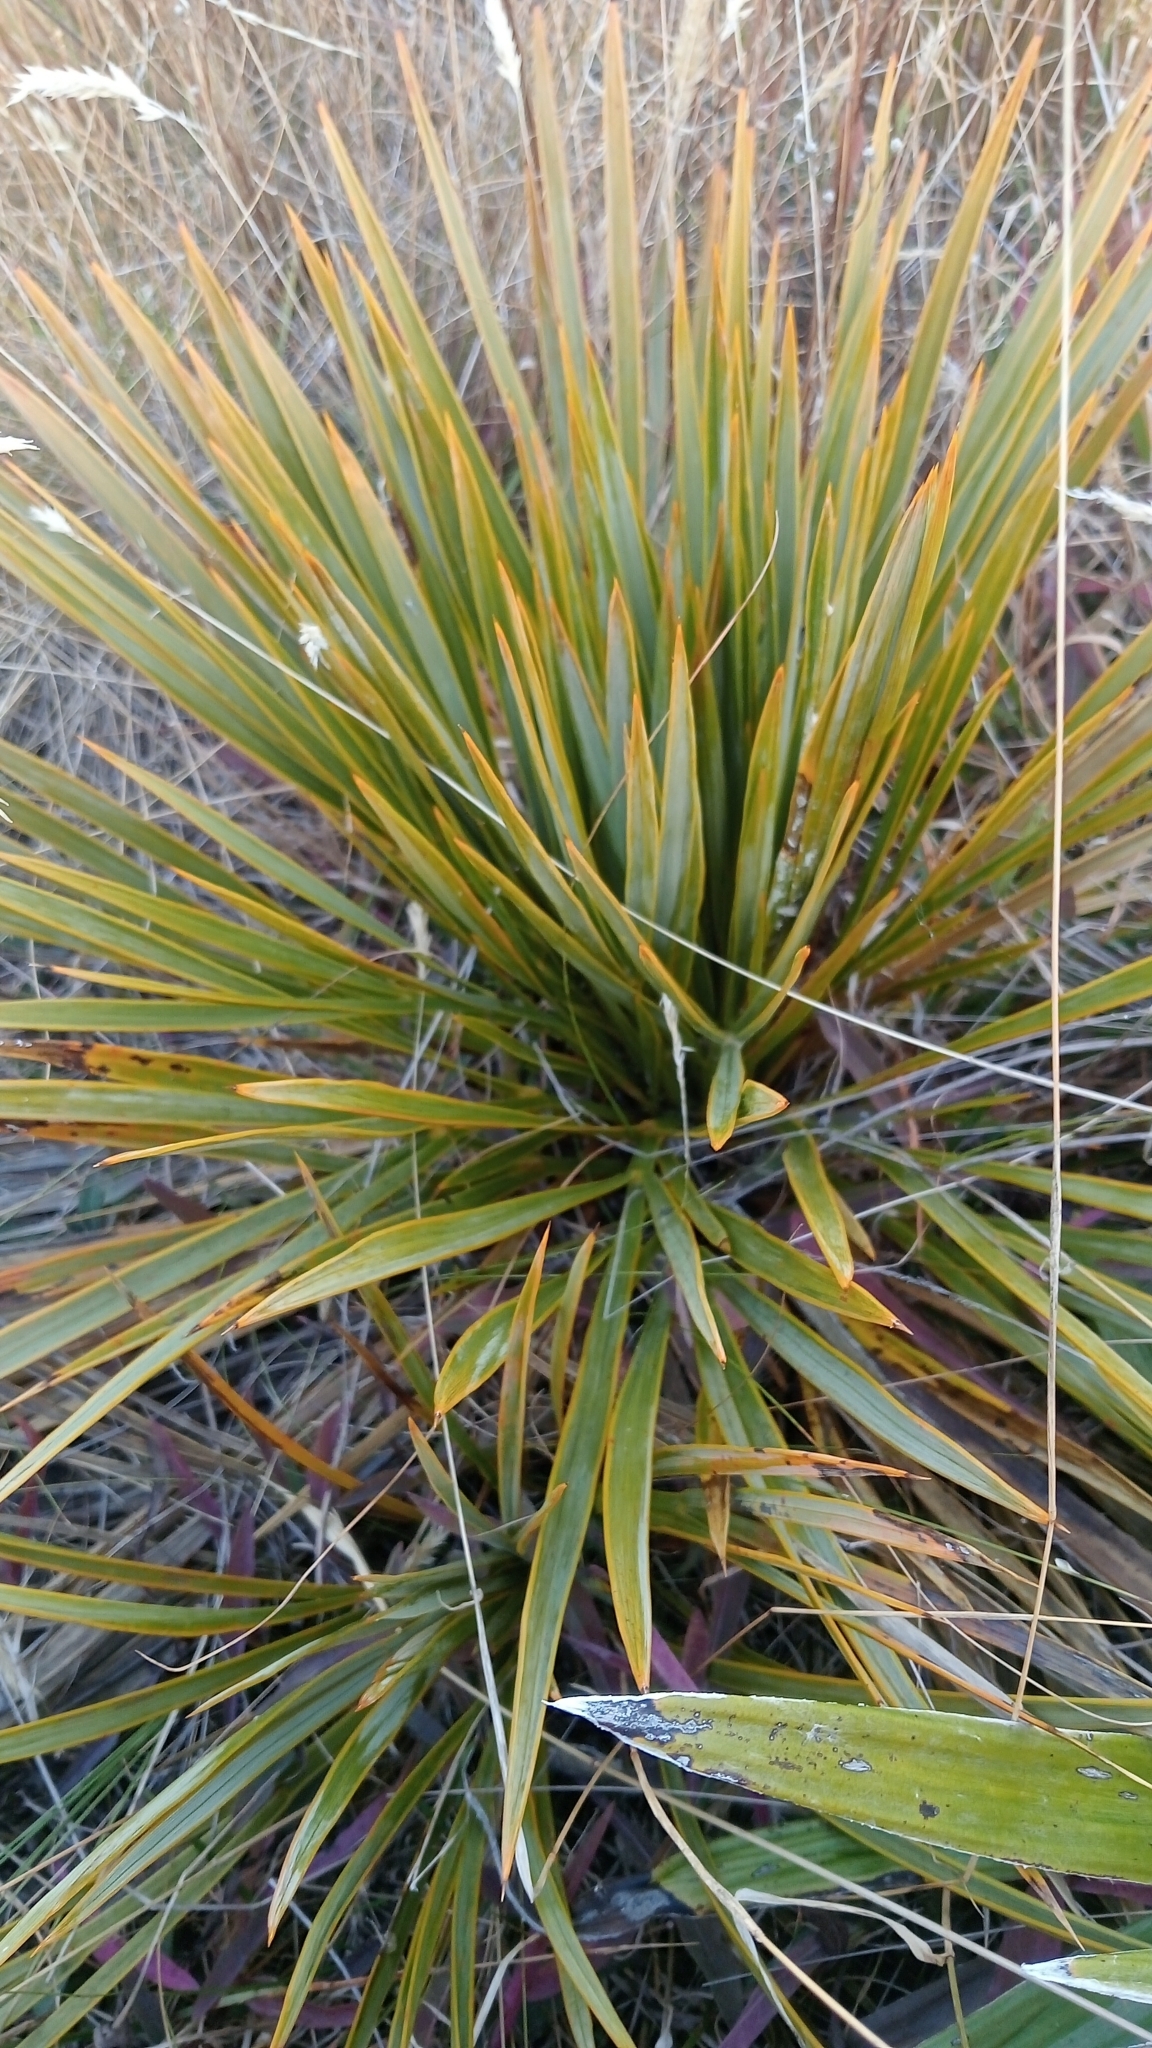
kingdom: Plantae
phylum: Tracheophyta
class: Magnoliopsida
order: Apiales
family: Apiaceae
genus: Aciphylla
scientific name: Aciphylla aurea
